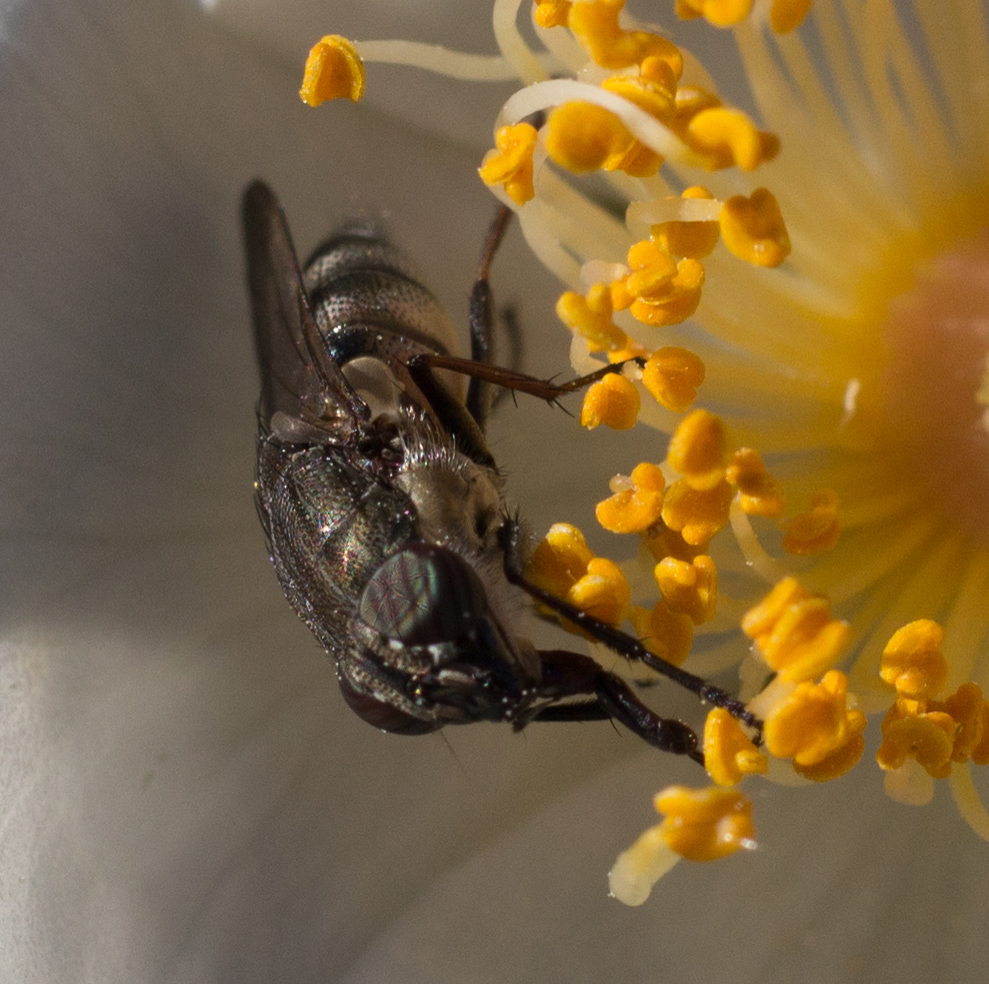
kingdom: Animalia
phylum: Arthropoda
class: Insecta
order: Diptera
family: Calliphoridae
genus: Stomorhina
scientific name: Stomorhina lunata
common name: Locust blowfly
